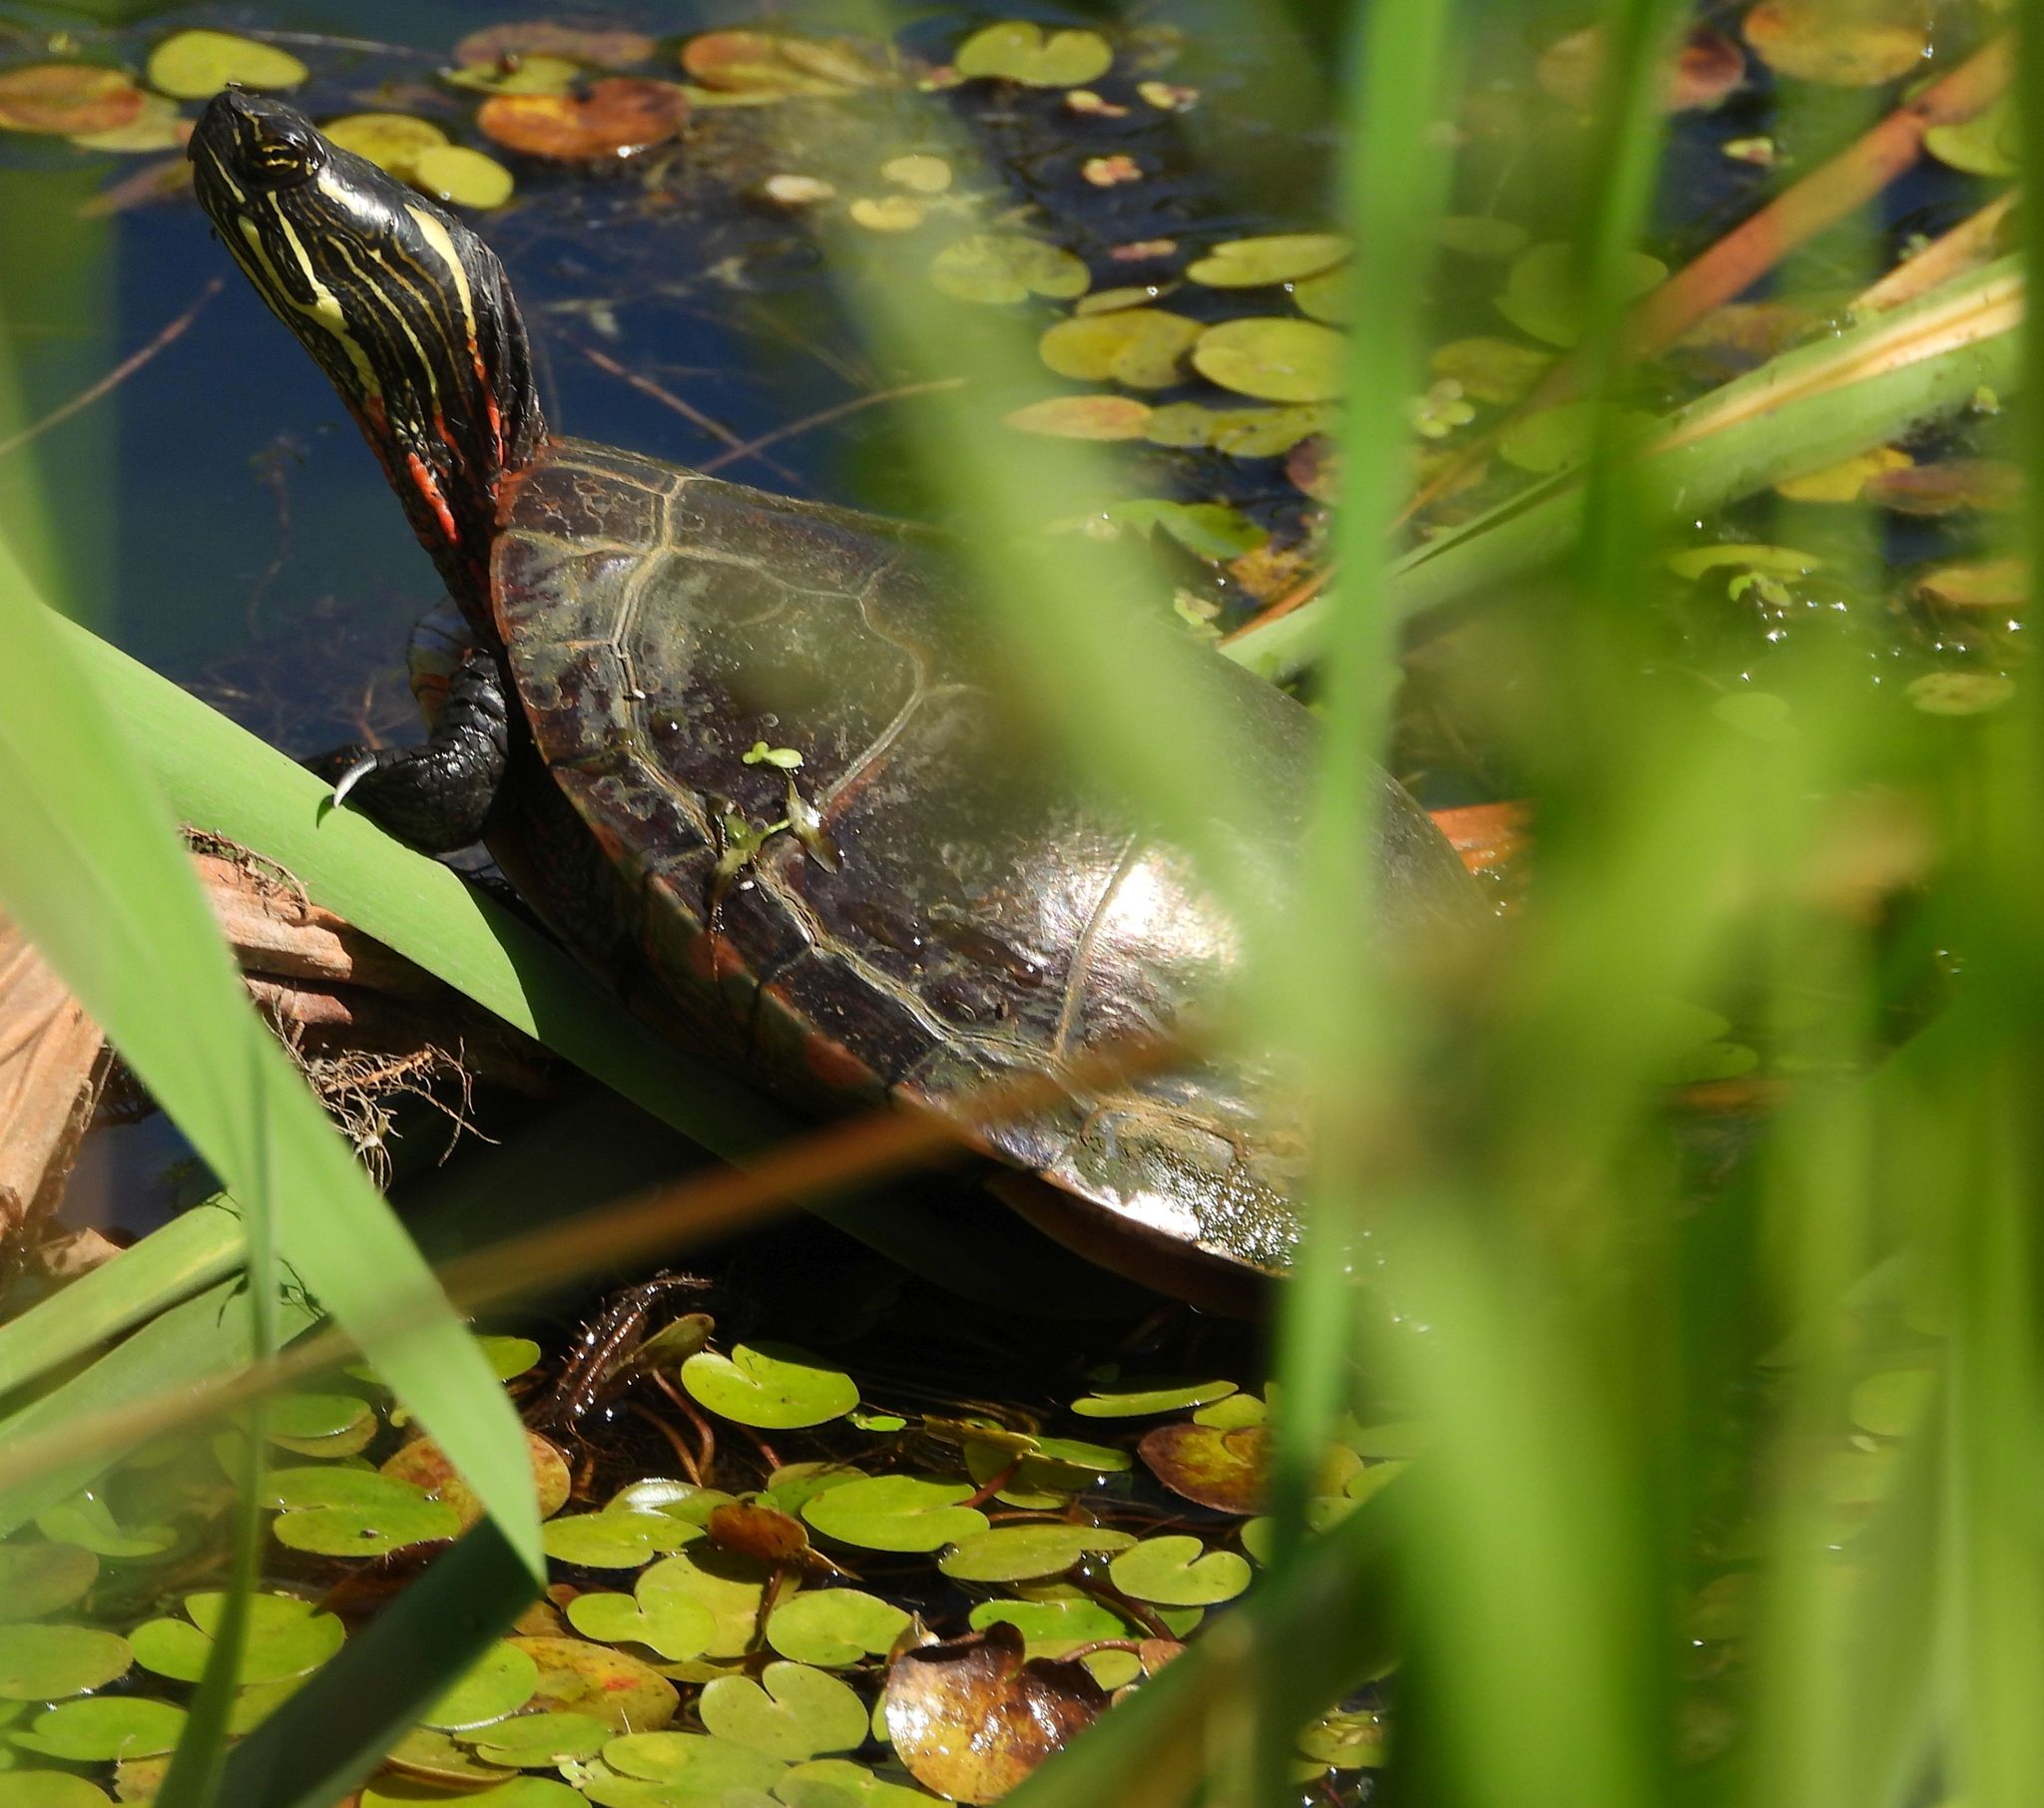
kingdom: Animalia
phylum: Chordata
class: Testudines
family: Emydidae
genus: Chrysemys
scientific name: Chrysemys picta
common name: Painted turtle
